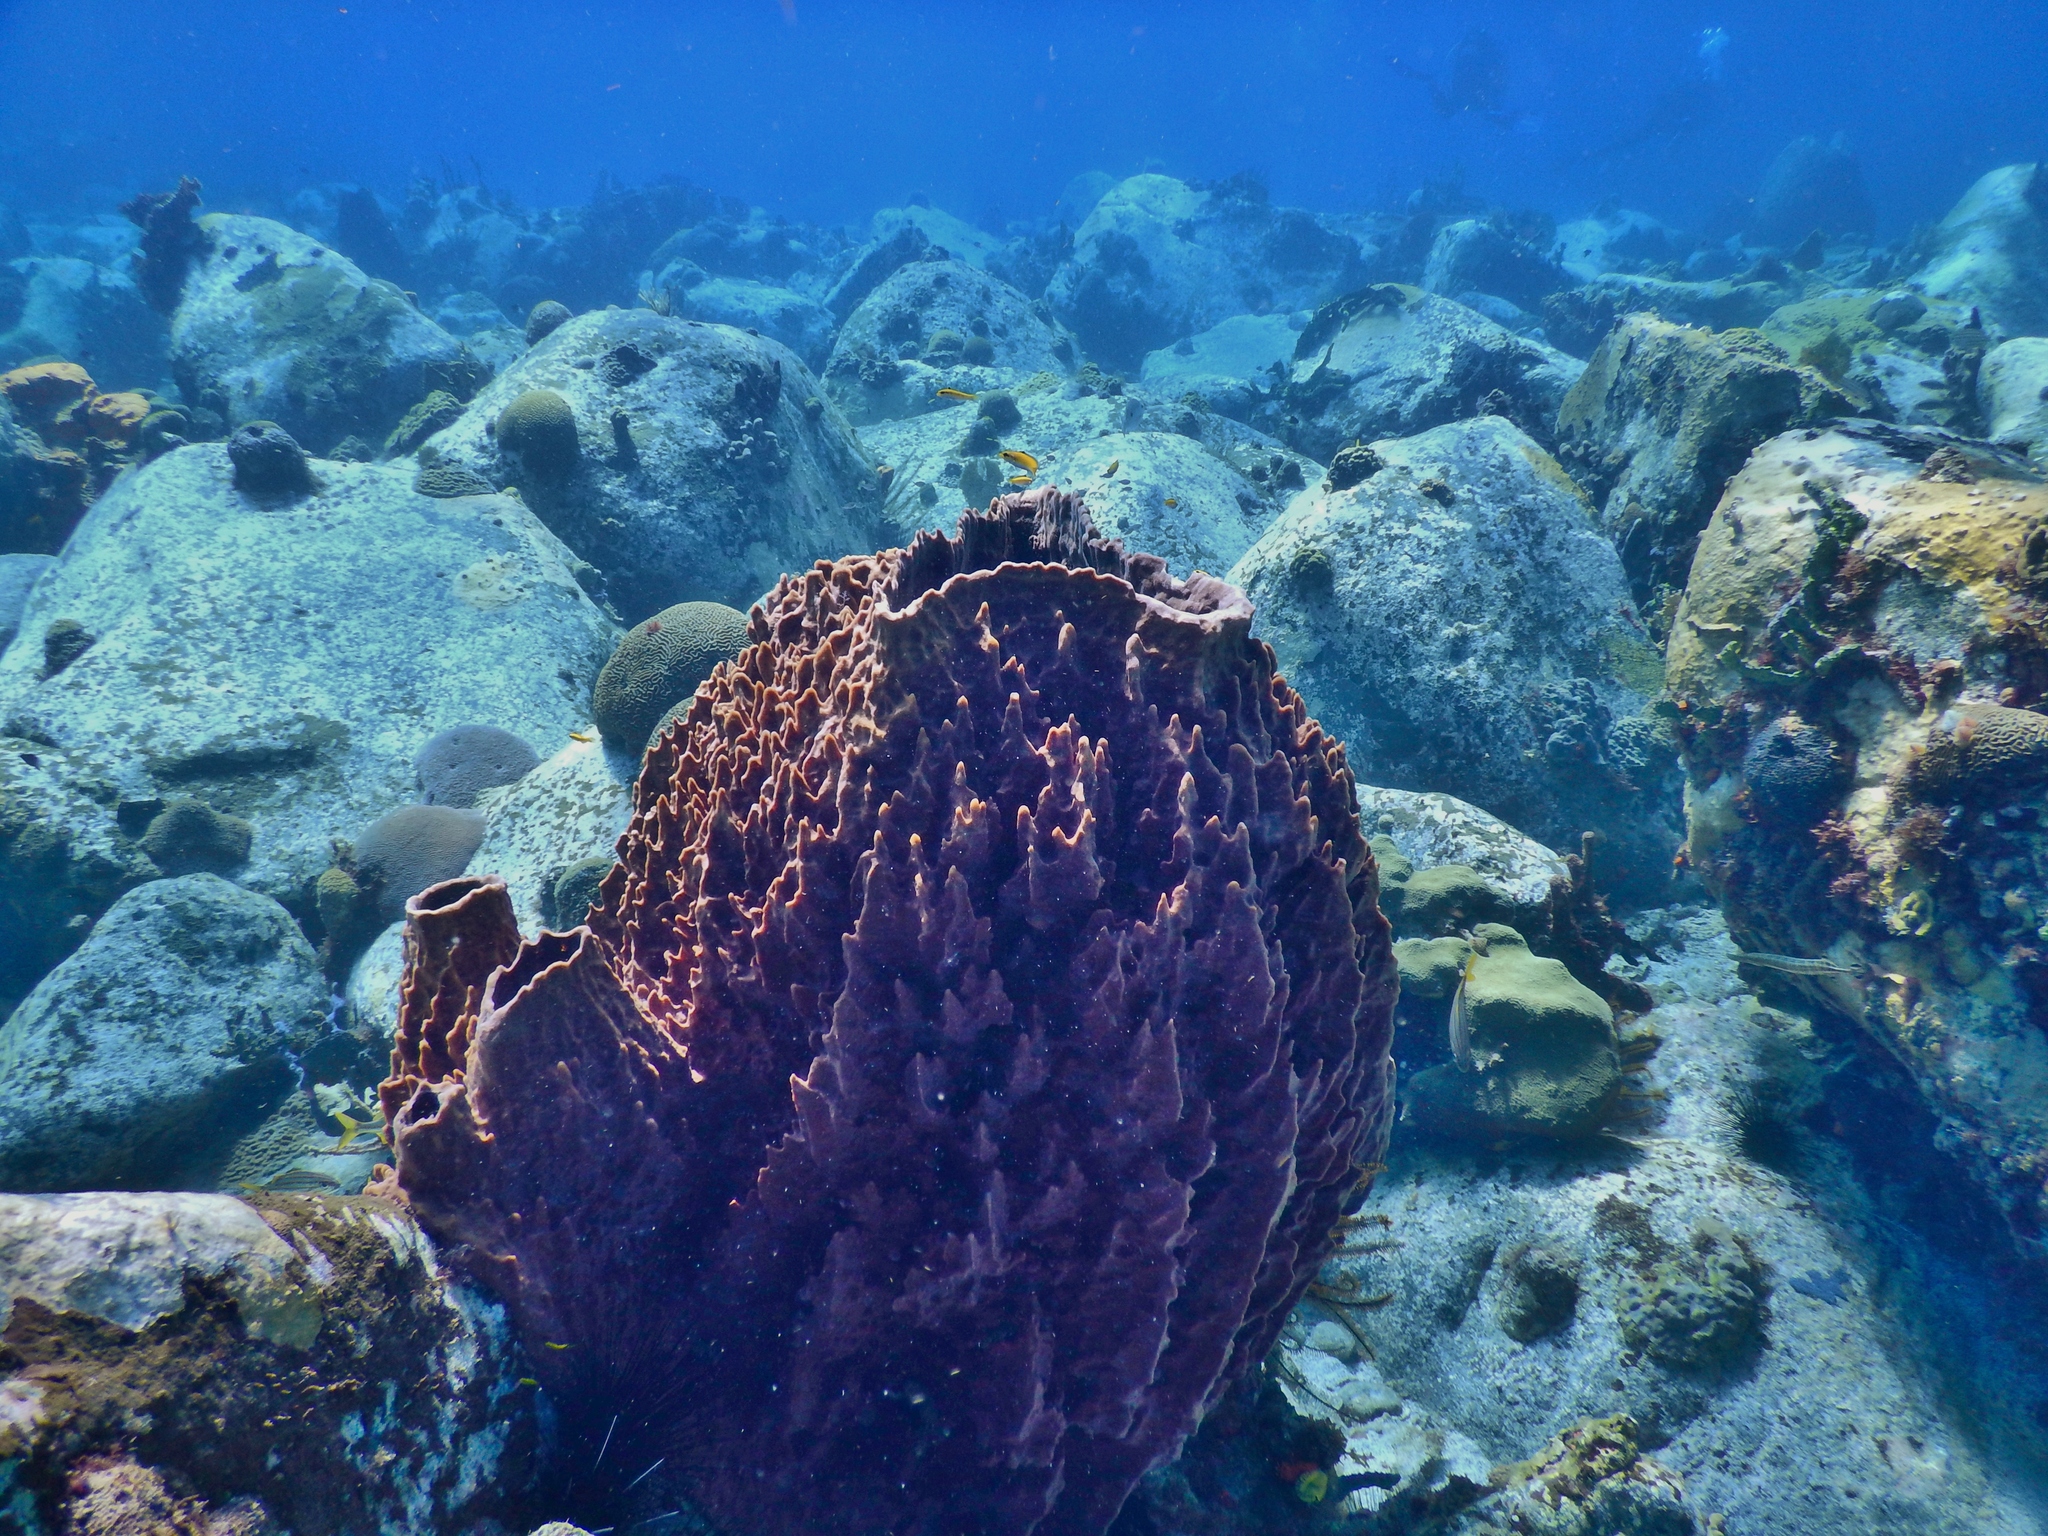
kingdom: Animalia
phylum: Porifera
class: Demospongiae
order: Haplosclerida
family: Petrosiidae
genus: Xestospongia
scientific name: Xestospongia muta
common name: Giant barrel sponge
